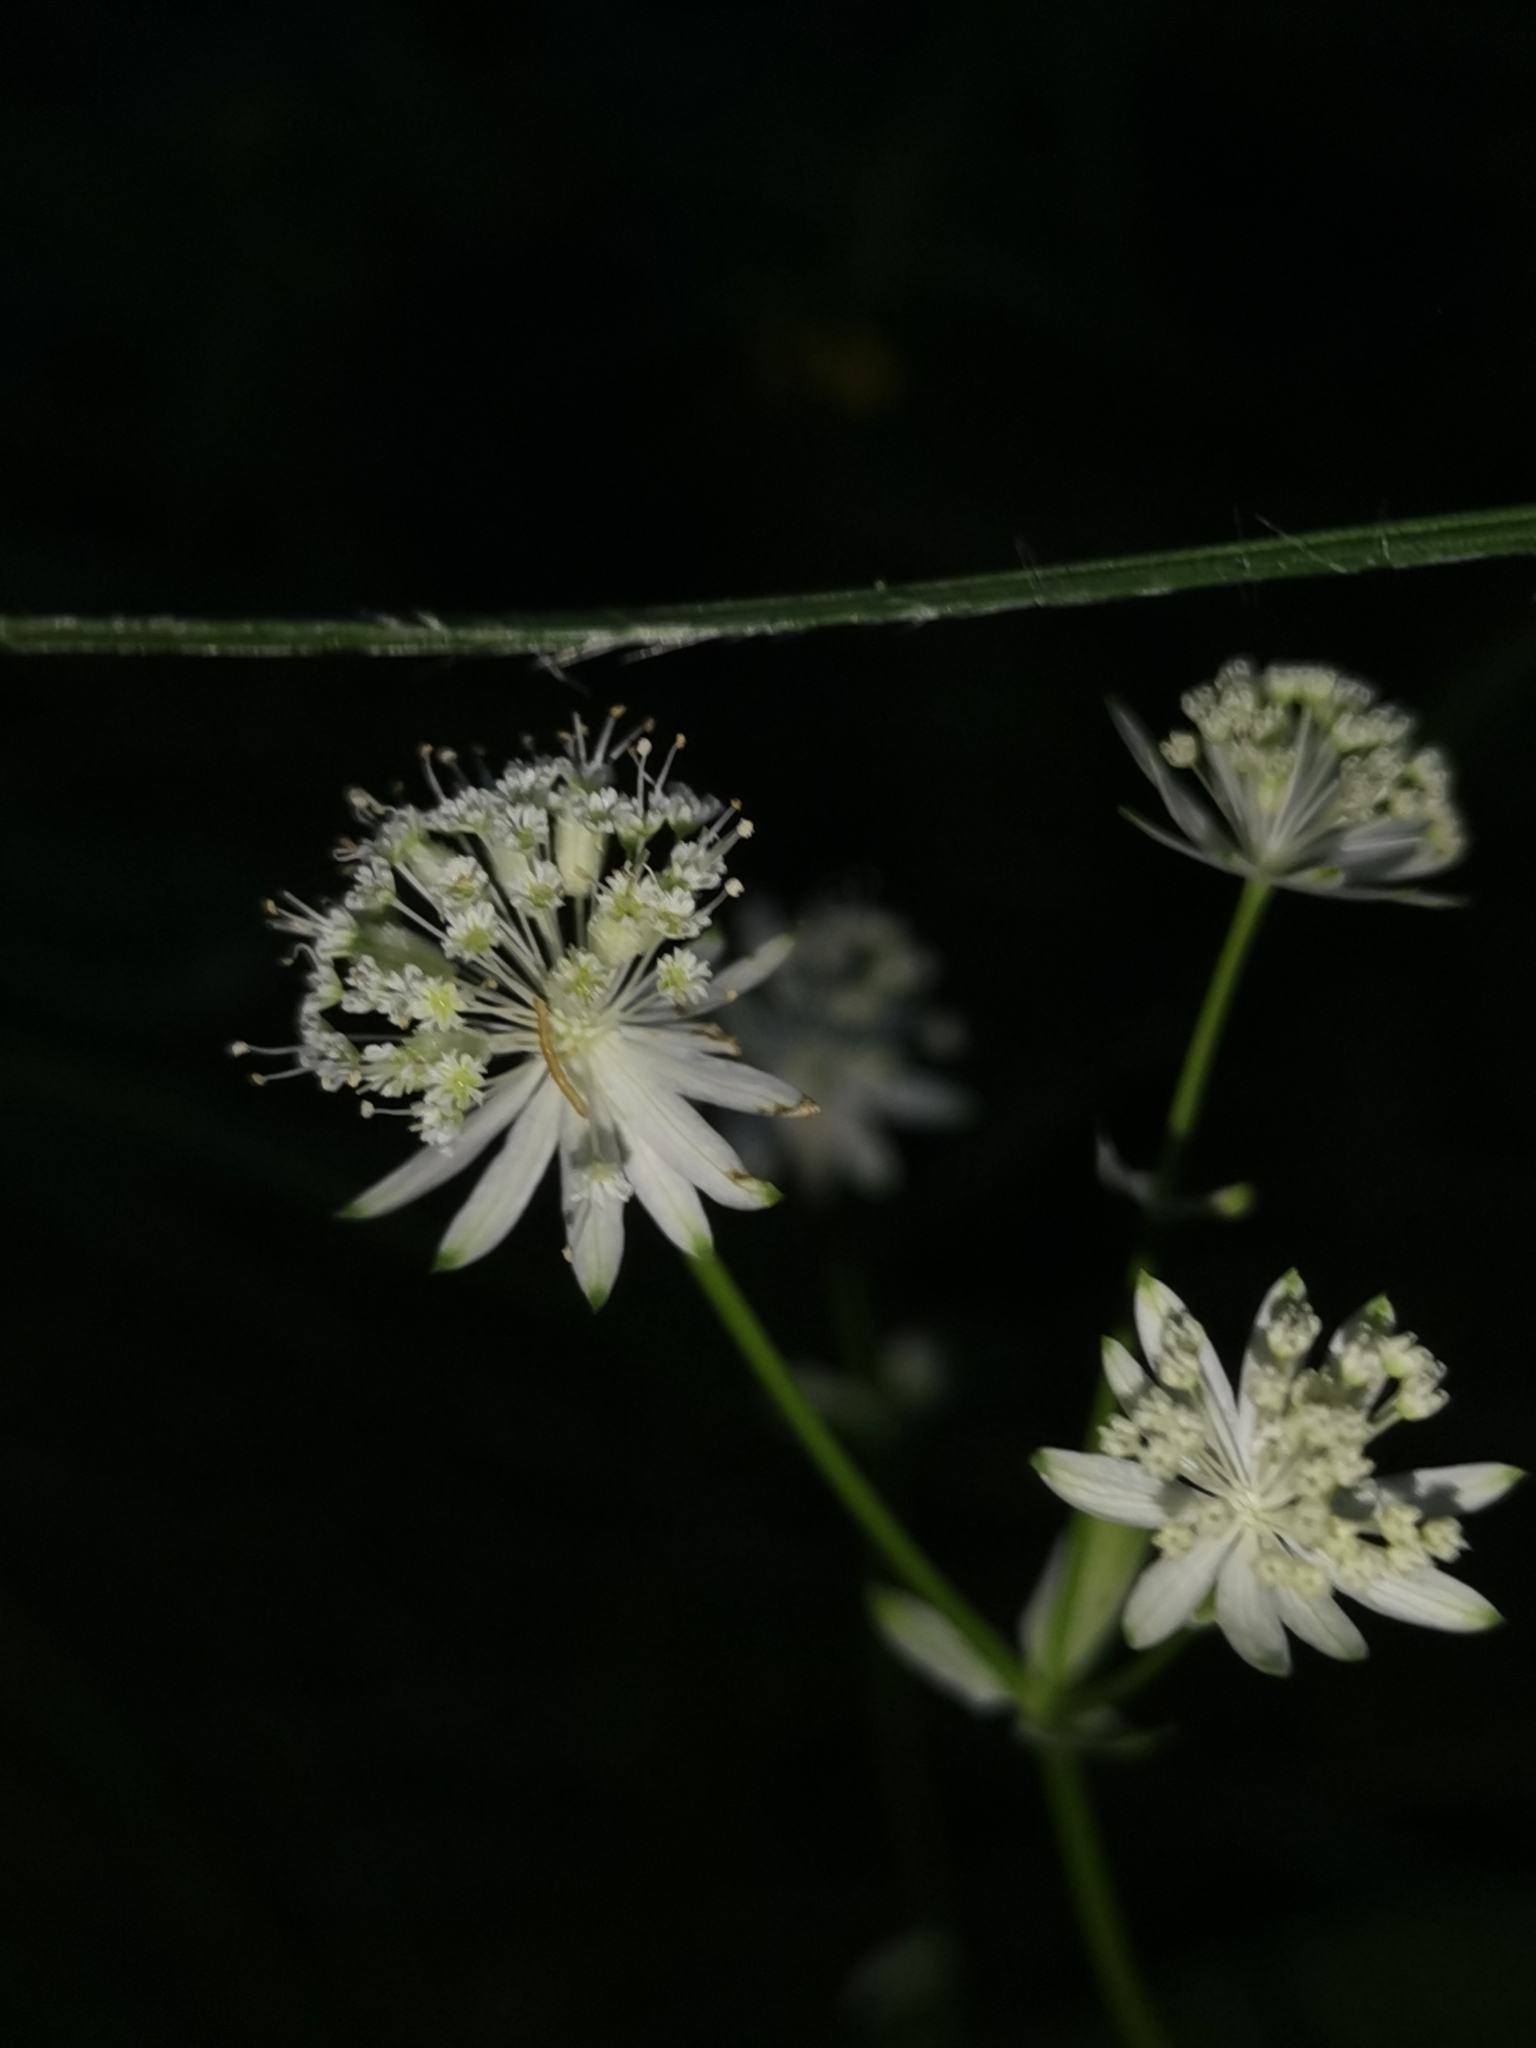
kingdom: Plantae
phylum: Tracheophyta
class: Magnoliopsida
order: Apiales
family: Apiaceae
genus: Astrantia
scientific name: Astrantia carniolica
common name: Carnic masterwort
